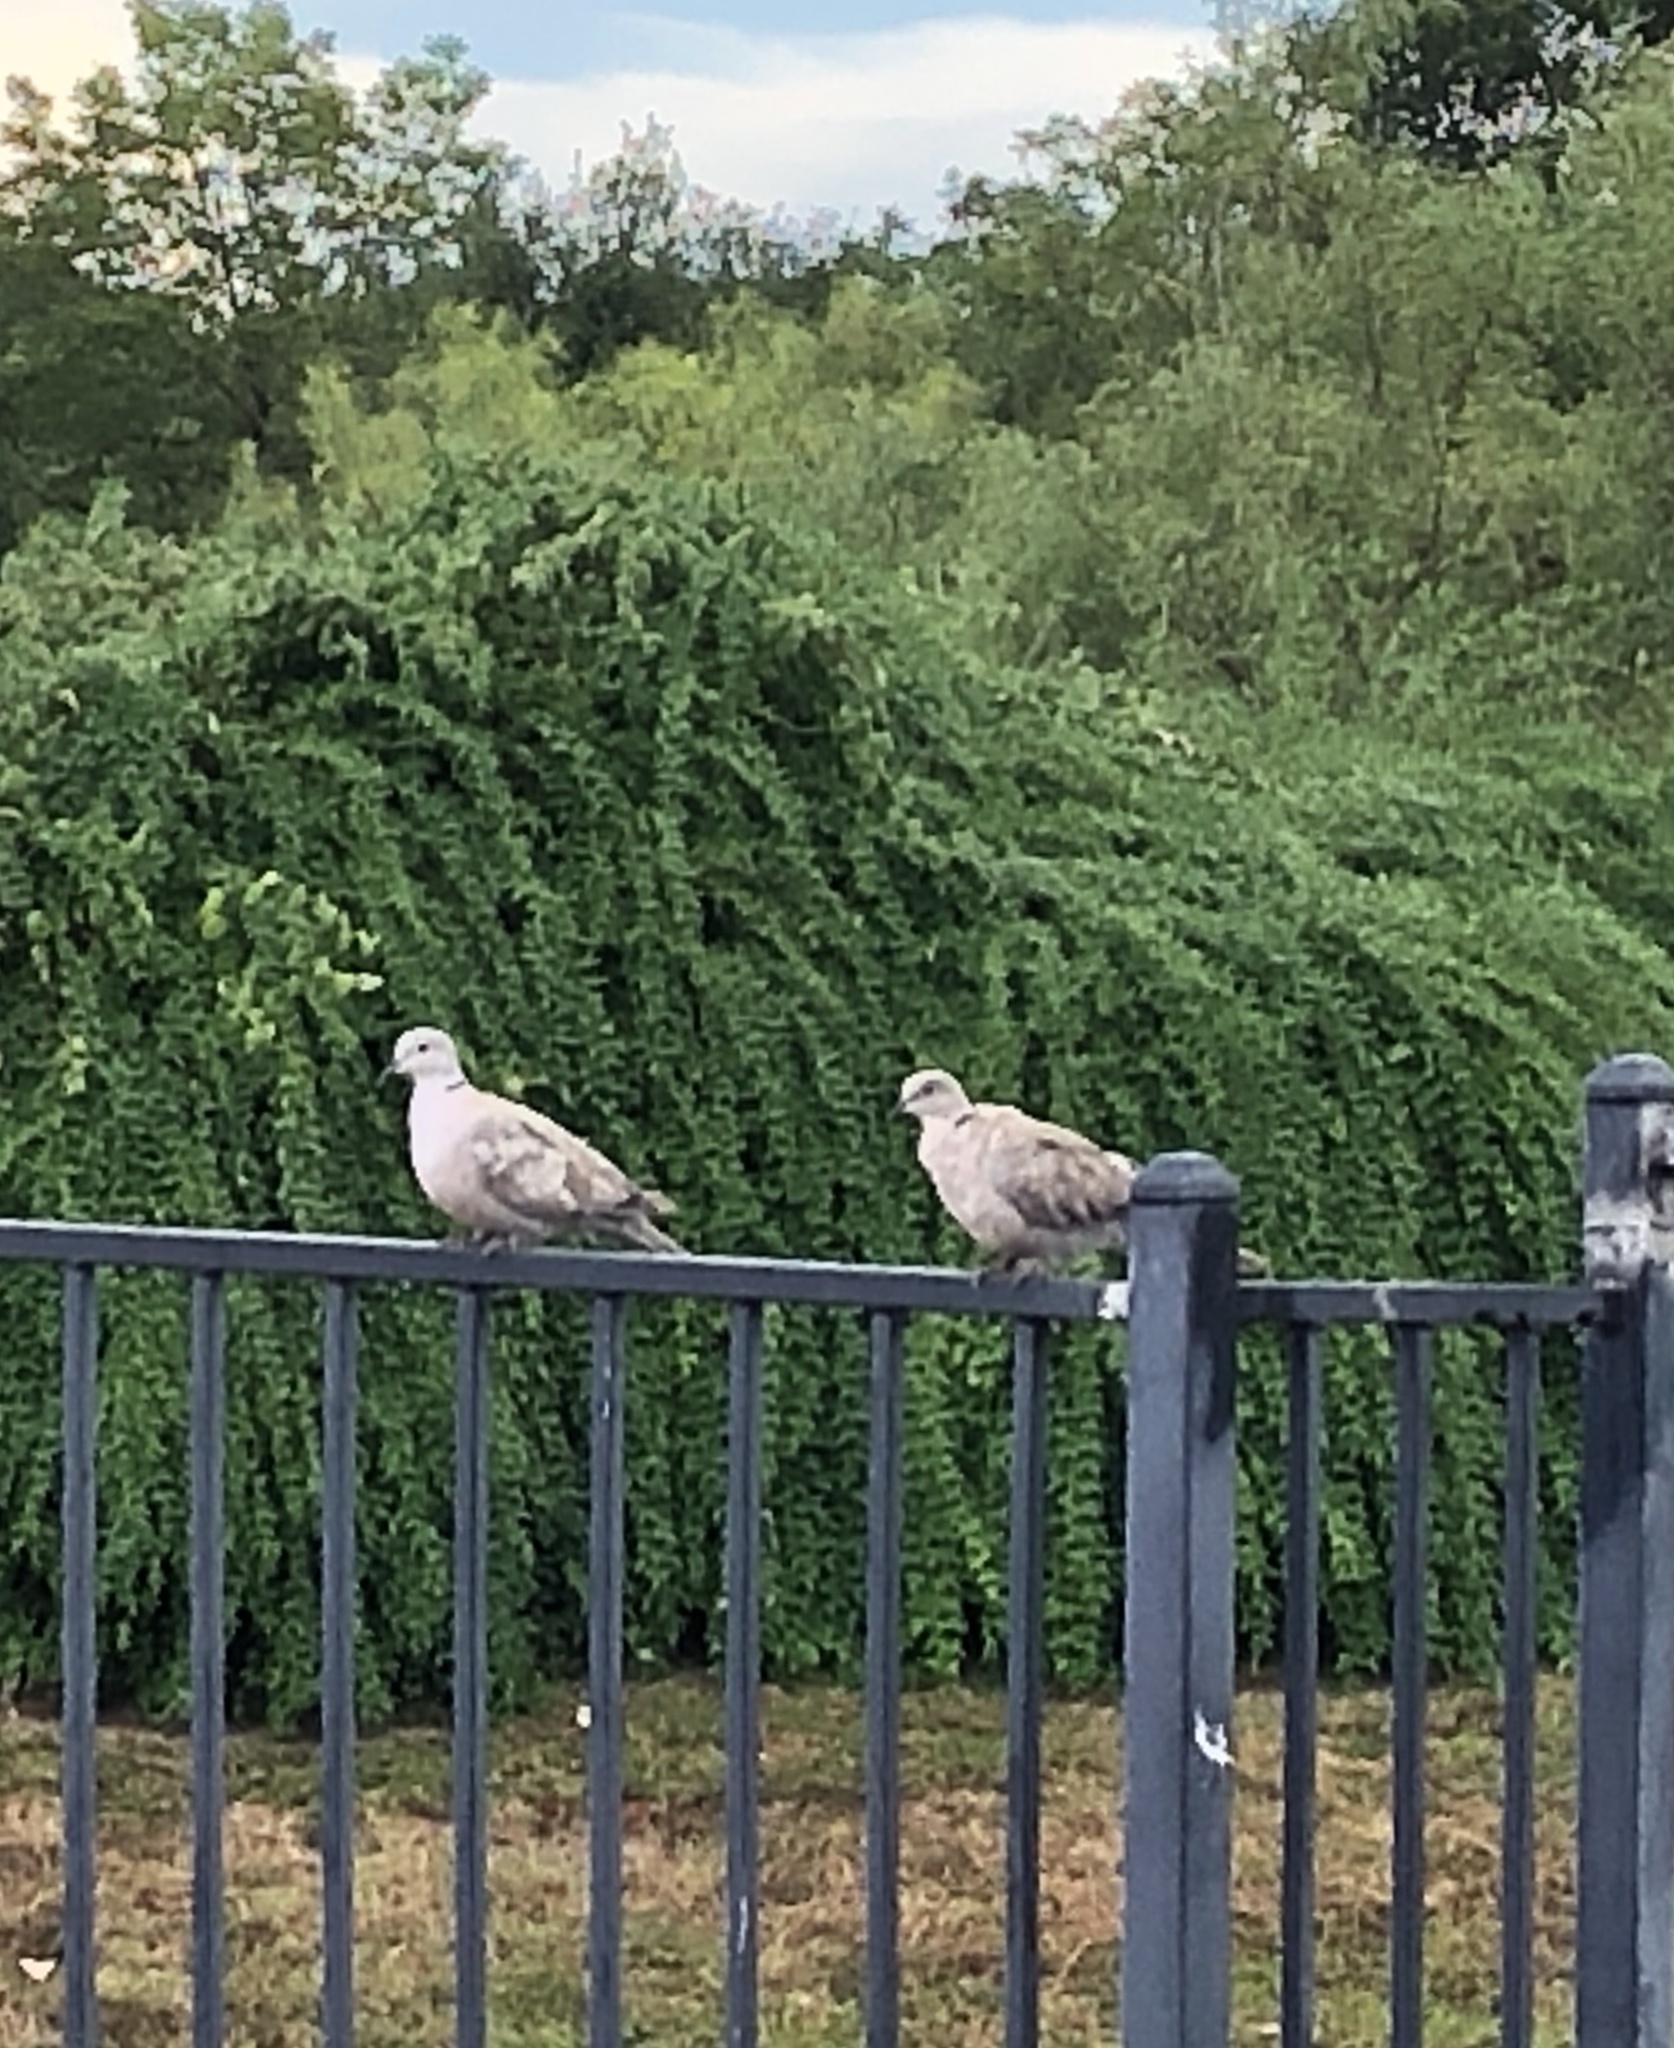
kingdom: Animalia
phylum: Chordata
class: Aves
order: Columbiformes
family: Columbidae
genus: Streptopelia
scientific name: Streptopelia decaocto
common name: Eurasian collared dove
